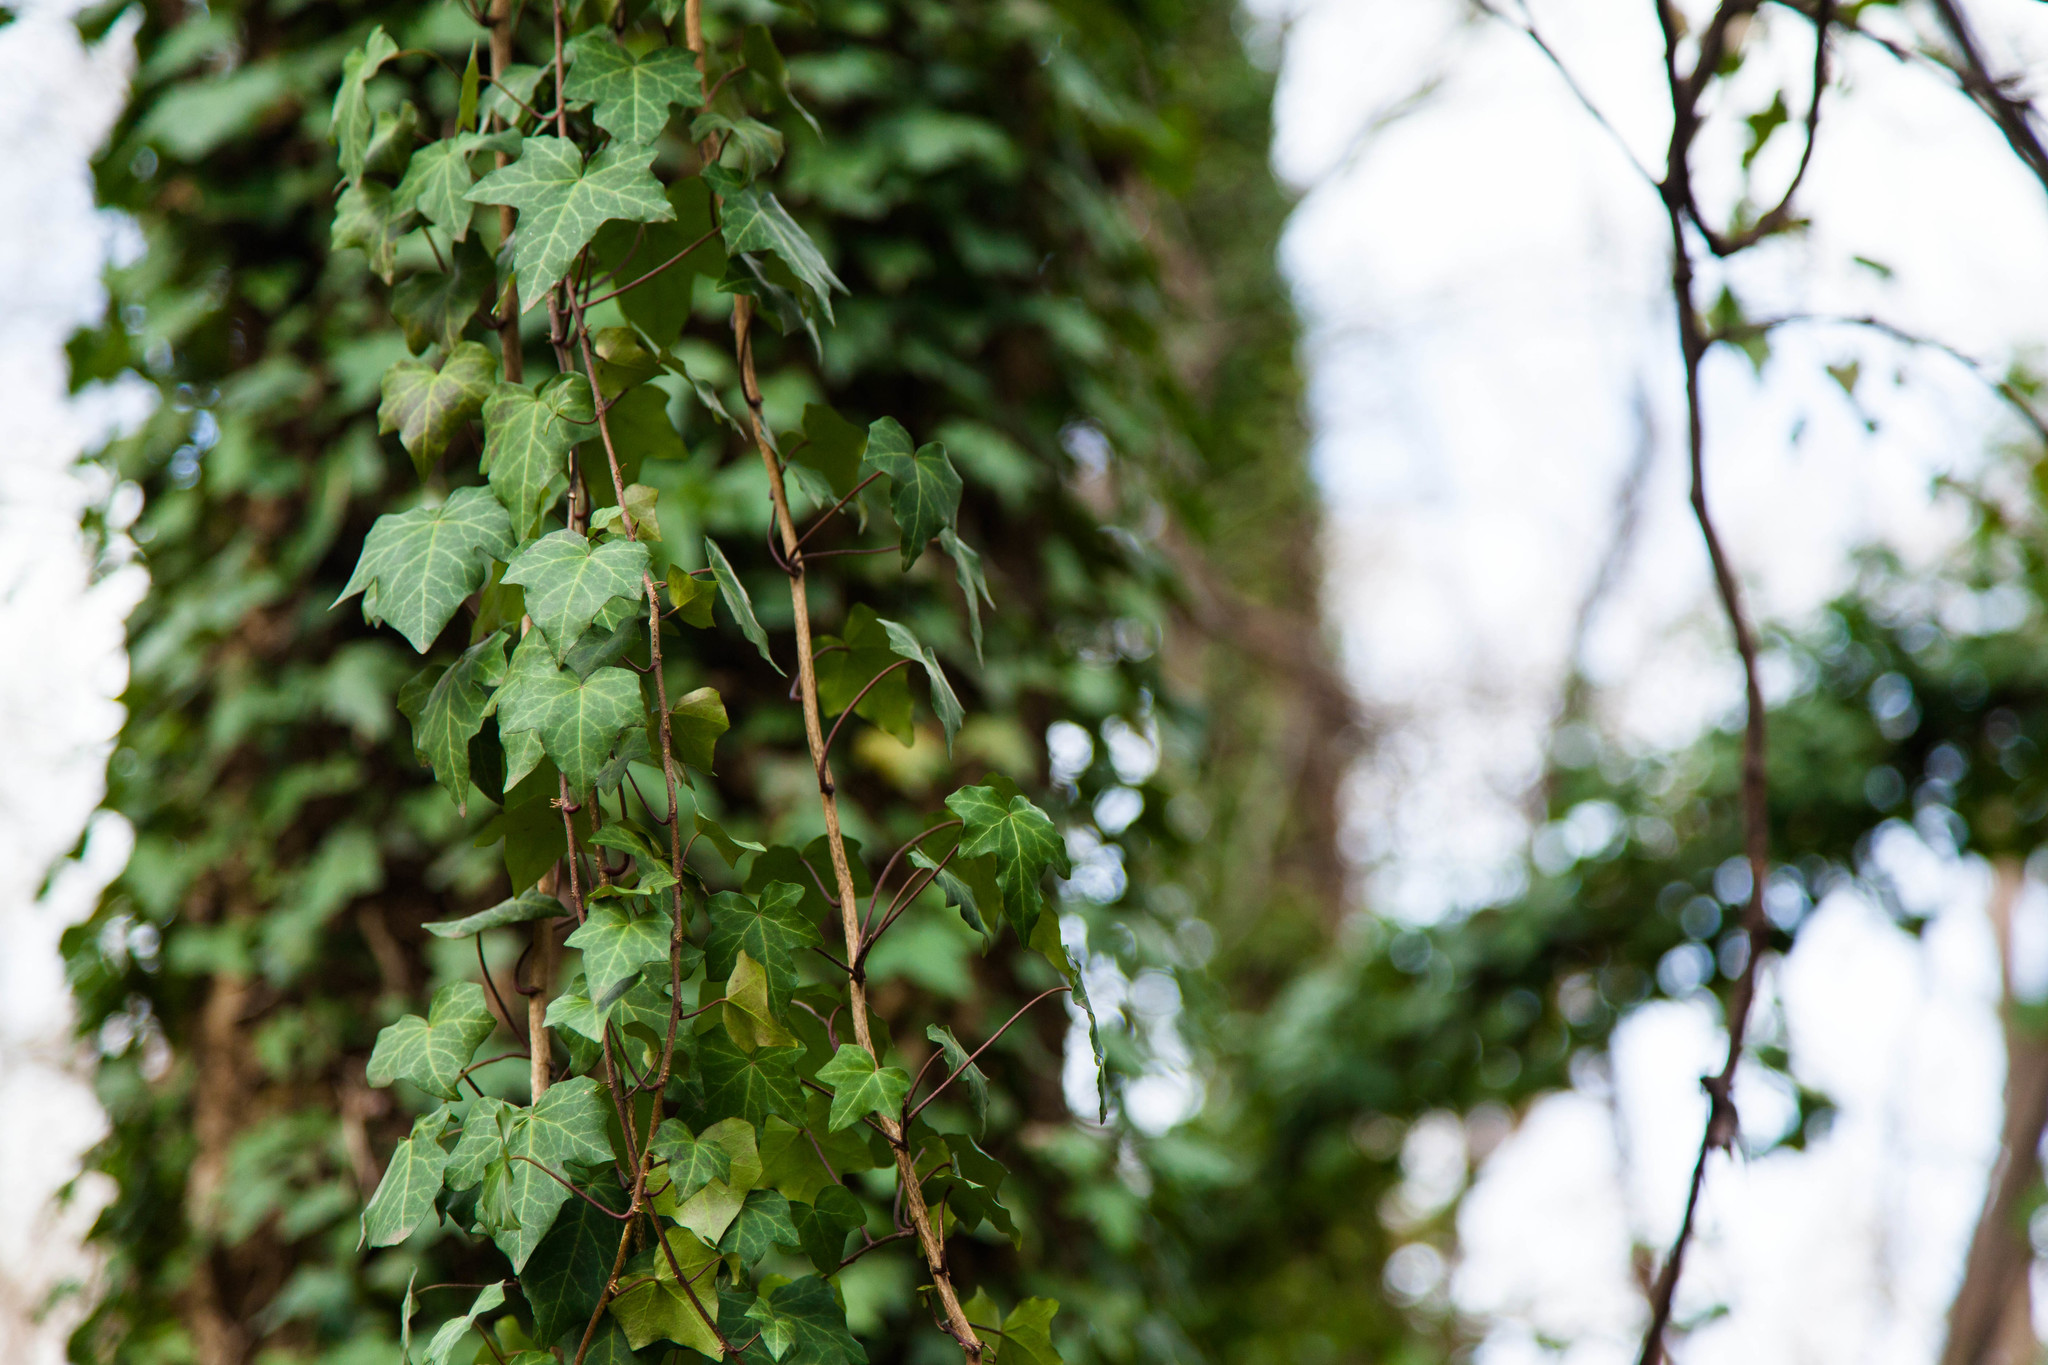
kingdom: Plantae
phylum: Tracheophyta
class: Magnoliopsida
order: Apiales
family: Araliaceae
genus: Hedera
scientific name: Hedera helix
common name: Ivy
